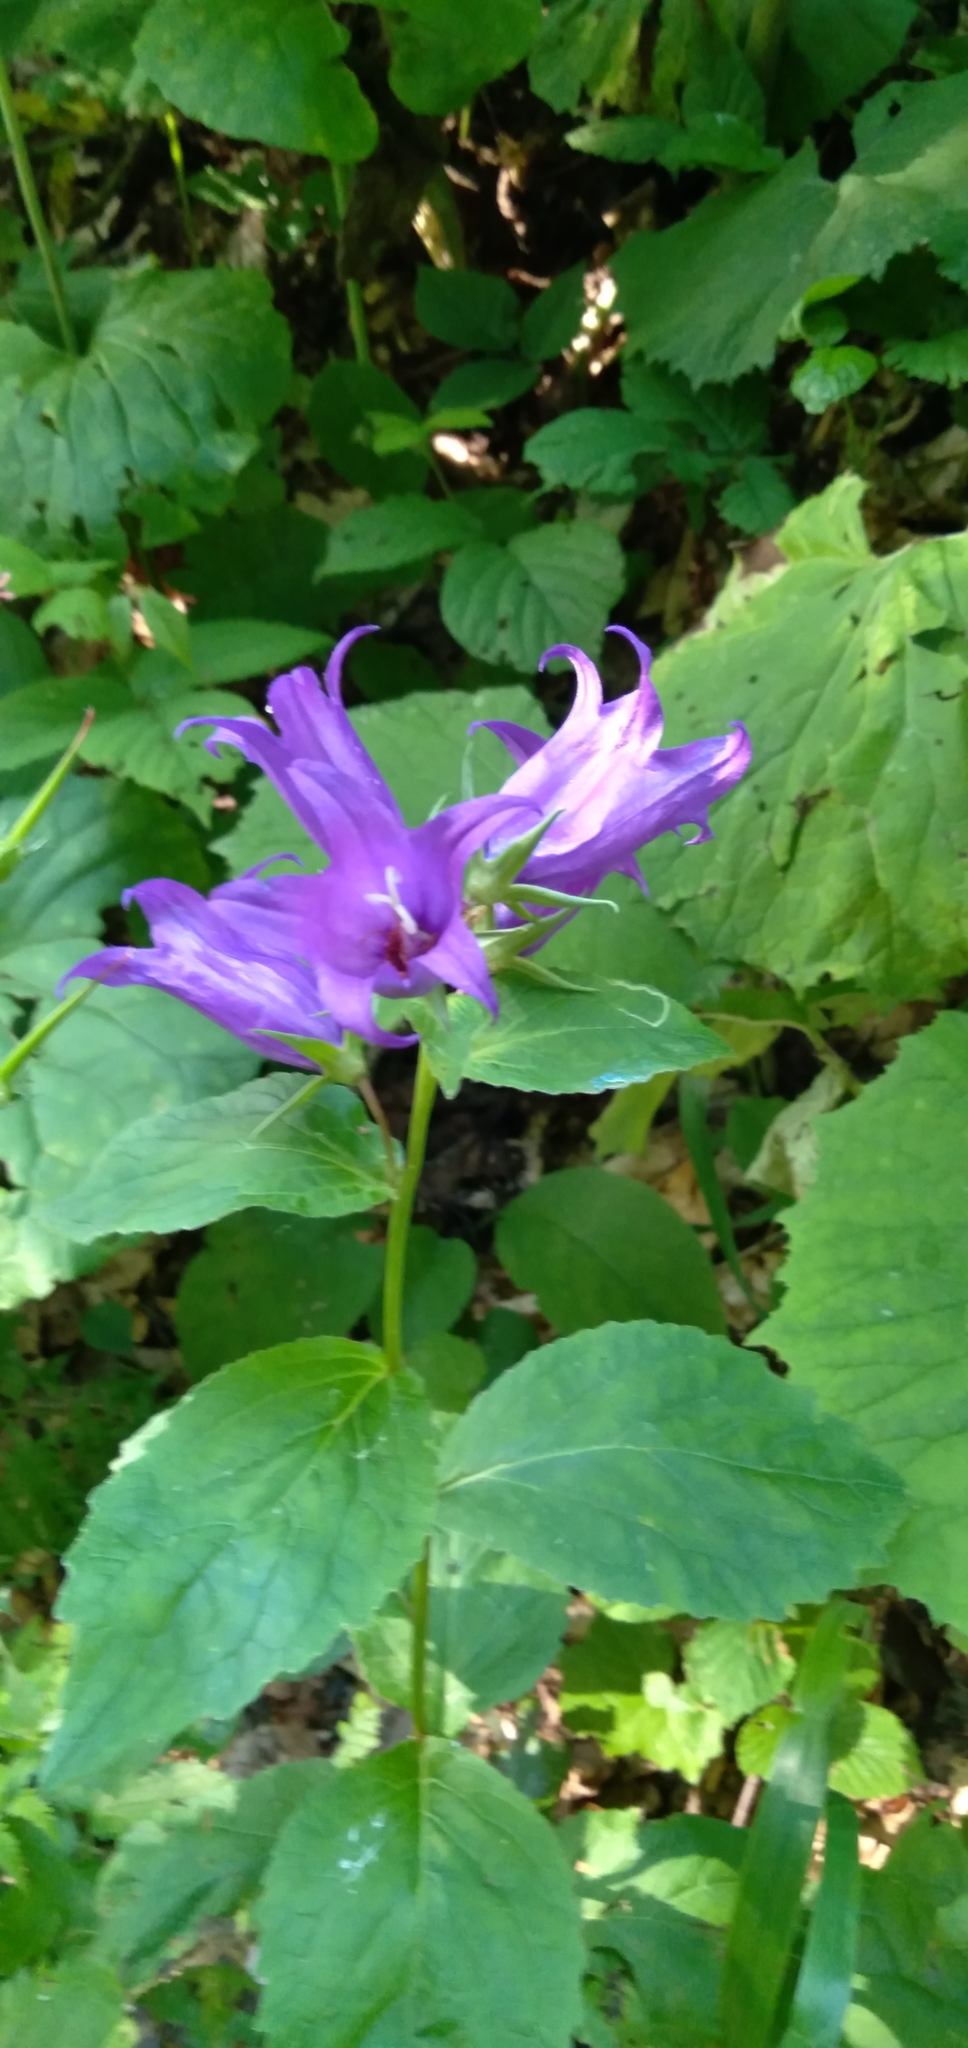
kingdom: Plantae
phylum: Tracheophyta
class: Magnoliopsida
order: Asterales
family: Campanulaceae
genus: Campanula
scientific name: Campanula latifolia
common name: Giant bellflower
